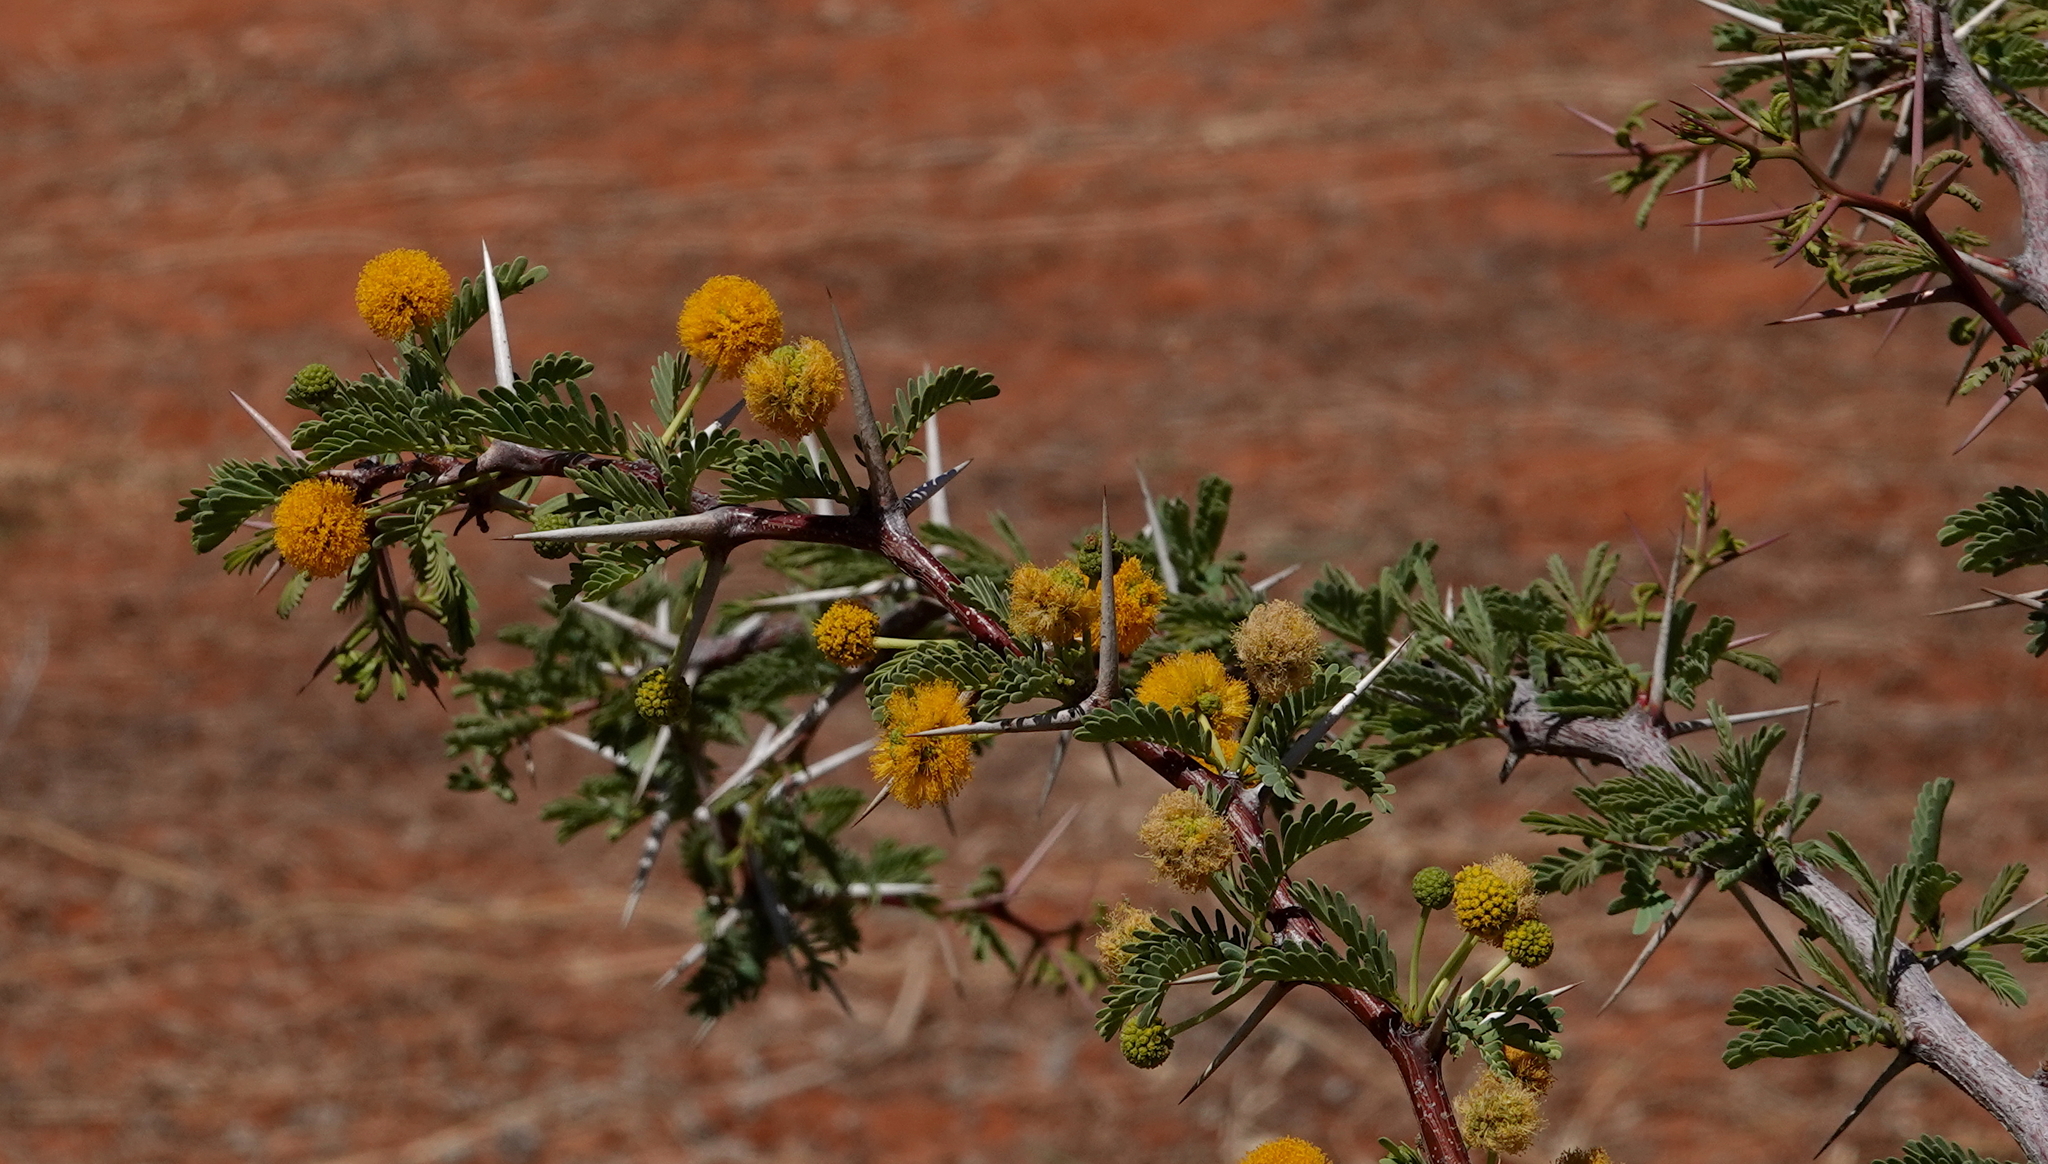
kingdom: Plantae
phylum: Tracheophyta
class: Magnoliopsida
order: Fabales
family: Fabaceae
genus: Vachellia
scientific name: Vachellia erioloba
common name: Camel thorn
